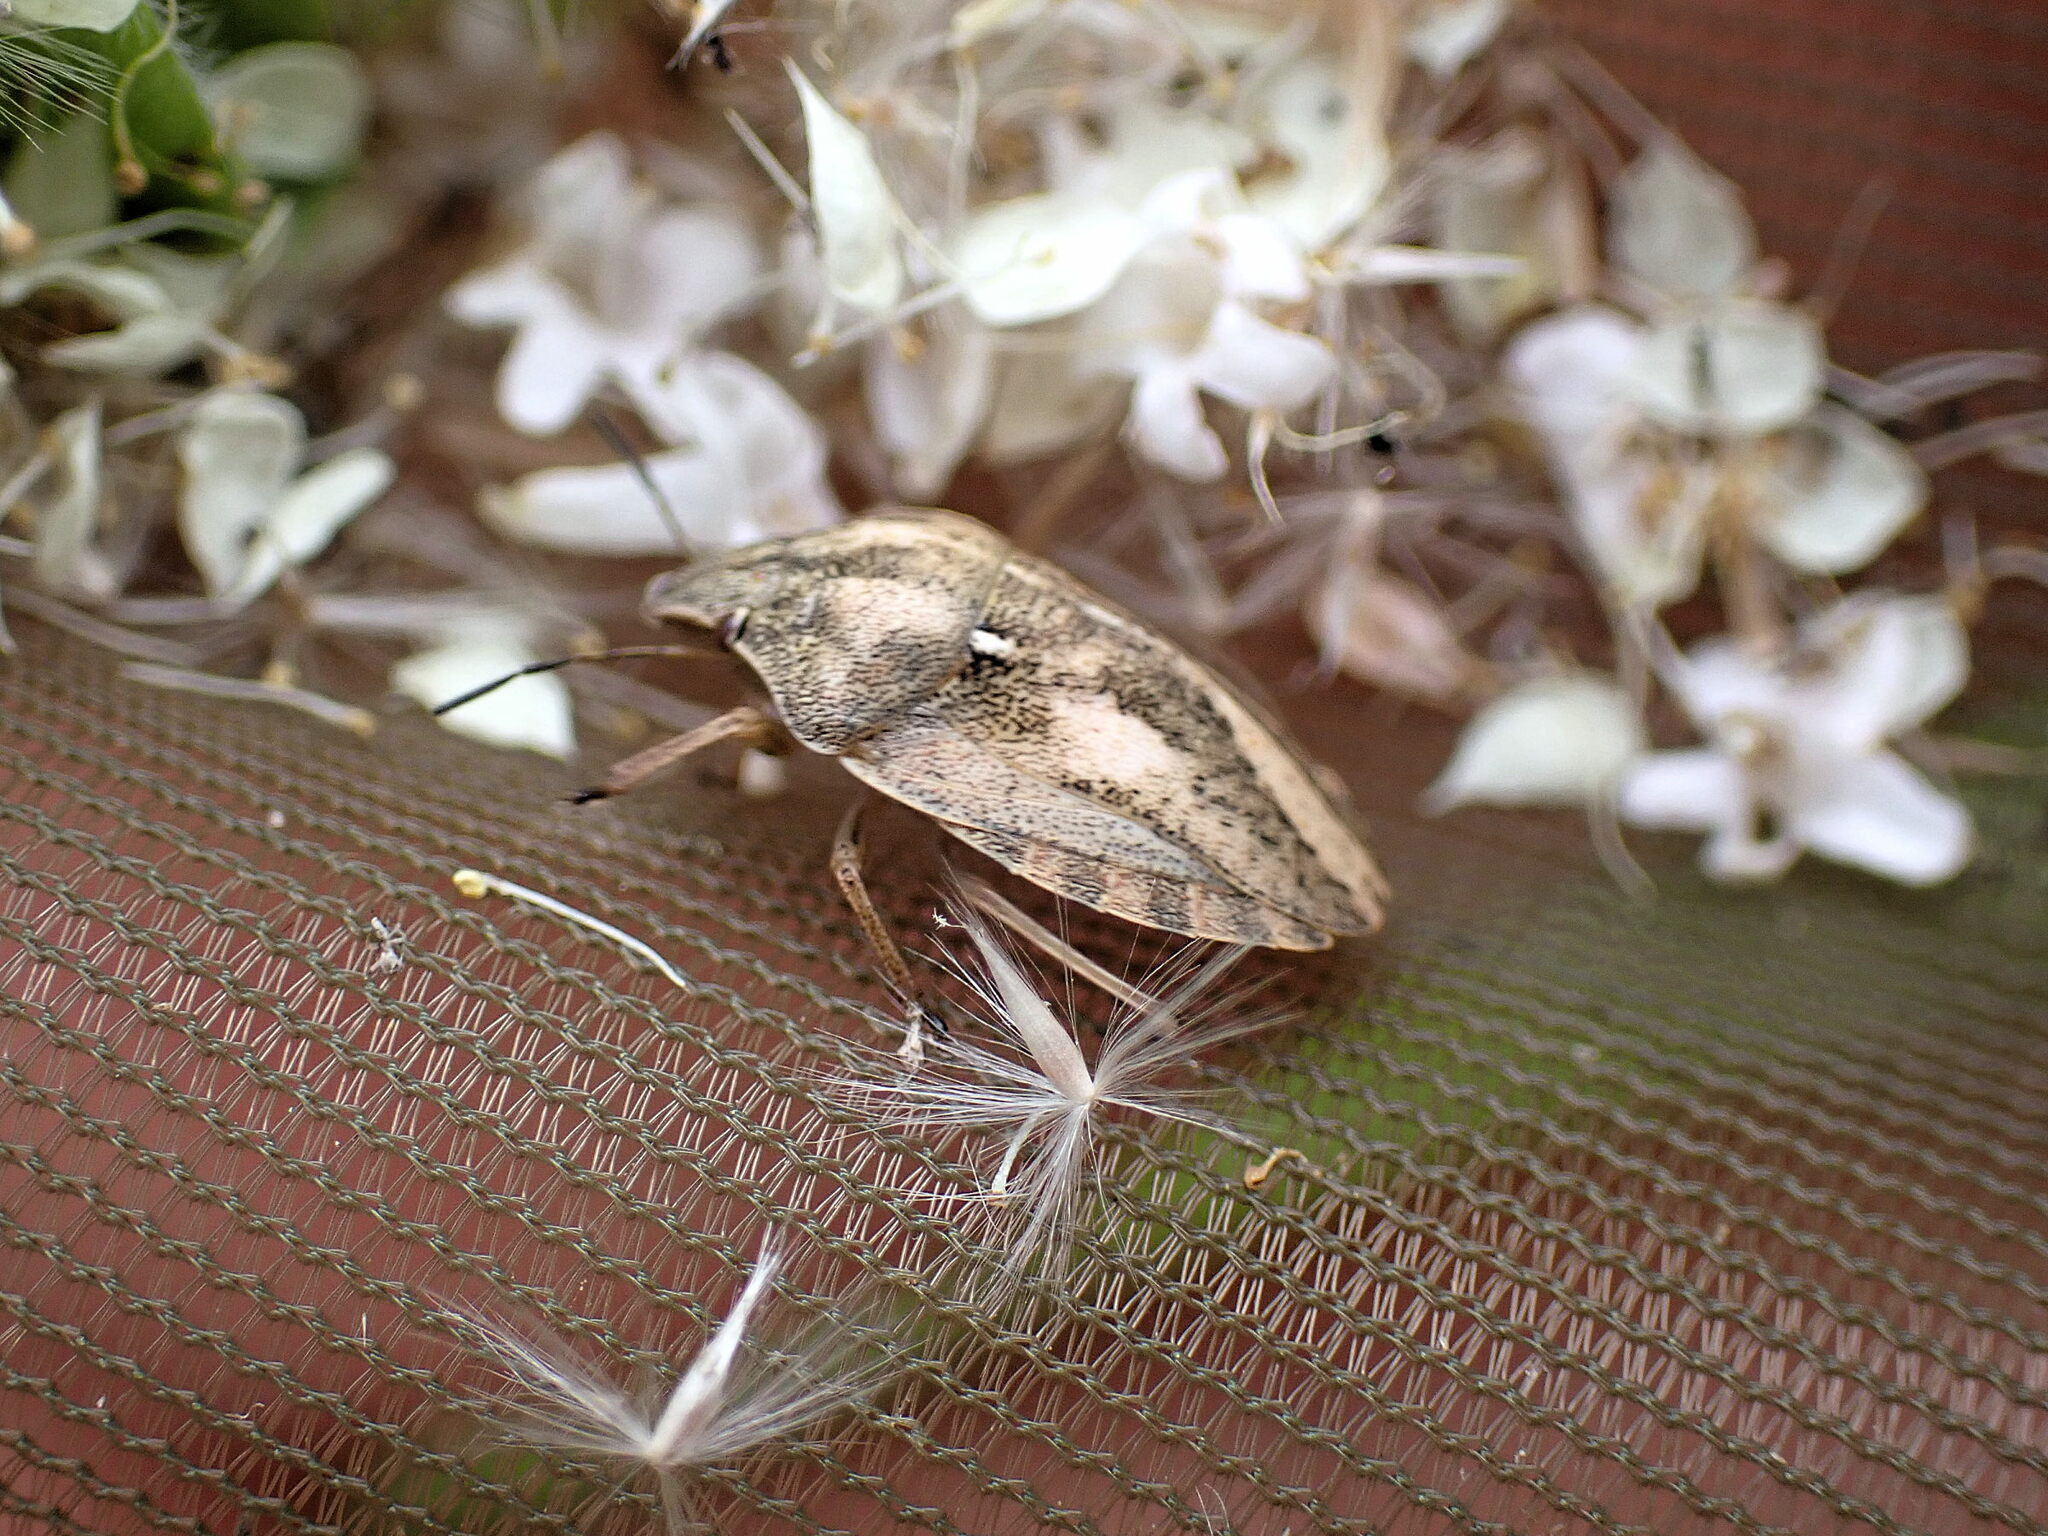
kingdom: Animalia
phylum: Arthropoda
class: Insecta
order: Hemiptera
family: Scutelleridae
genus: Eurygaster
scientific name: Eurygaster testudinaria
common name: Tortoise bug
